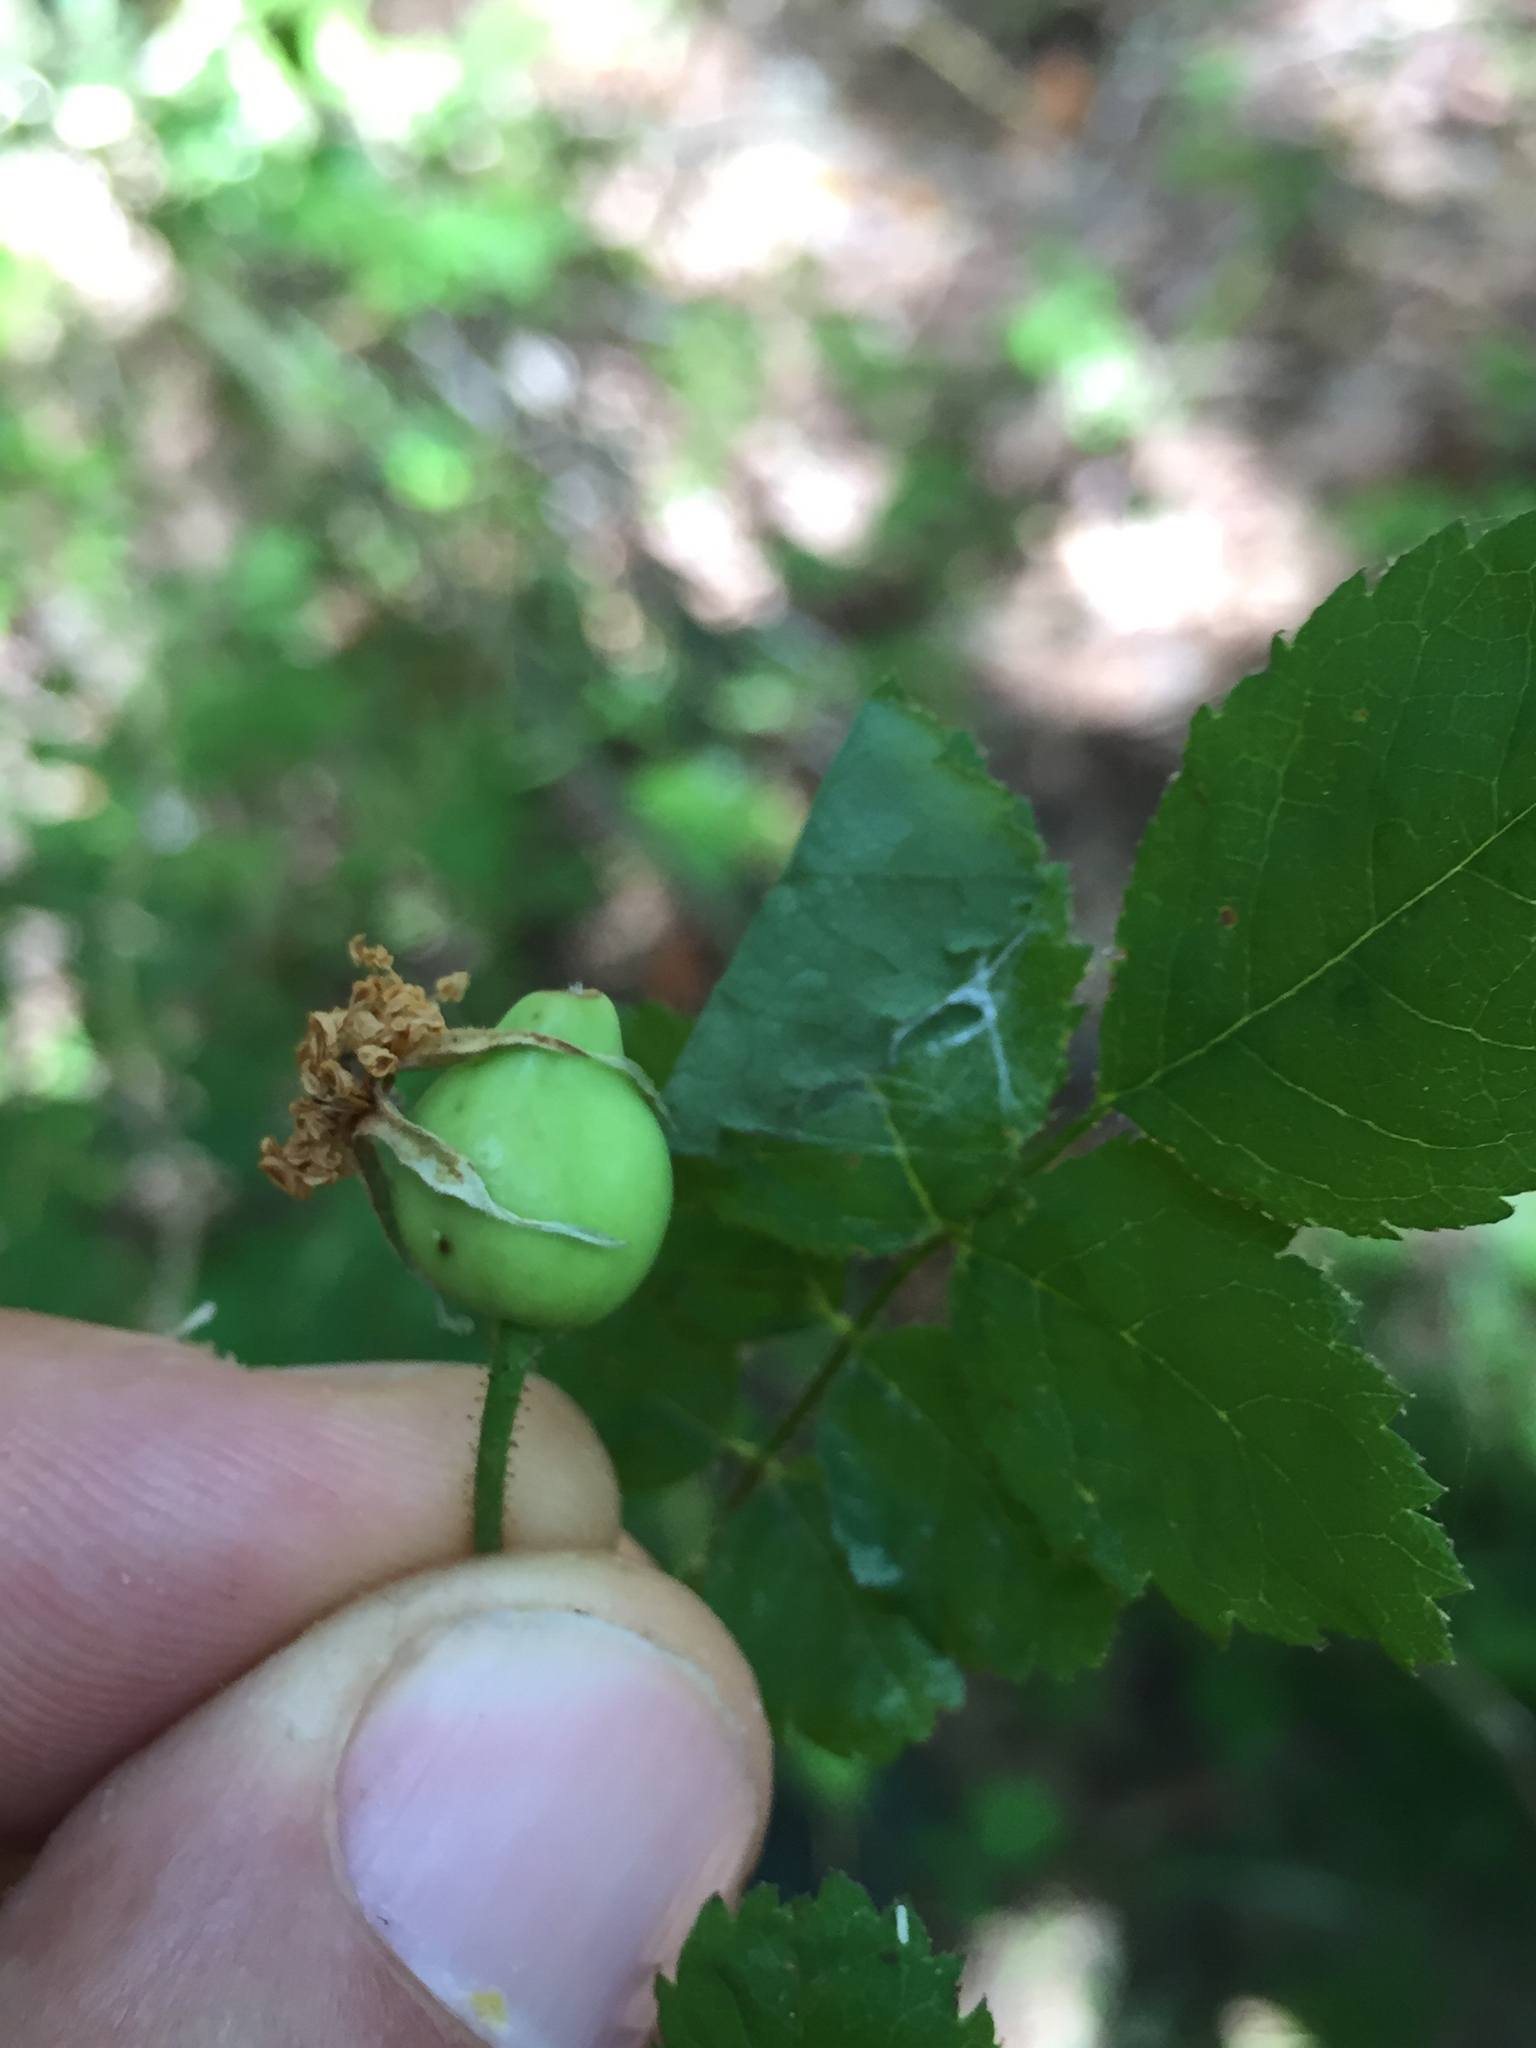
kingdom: Plantae
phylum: Tracheophyta
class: Magnoliopsida
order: Rosales
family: Rosaceae
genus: Rosa
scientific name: Rosa gymnocarpa
